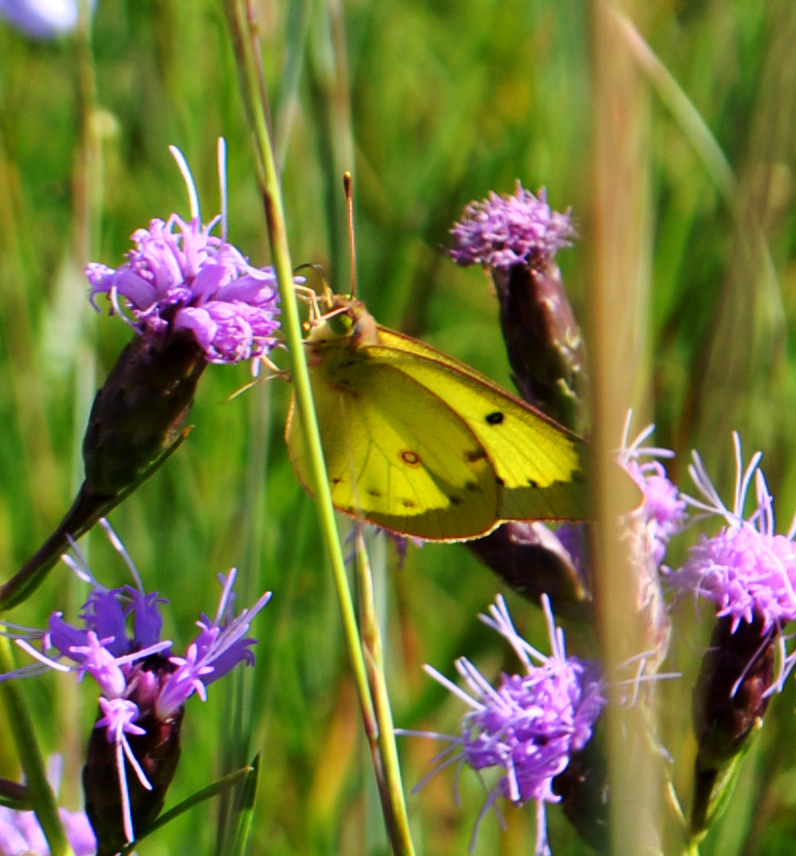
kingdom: Animalia
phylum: Arthropoda
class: Insecta
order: Lepidoptera
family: Pieridae
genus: Colias
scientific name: Colias philodice
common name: Clouded sulphur
